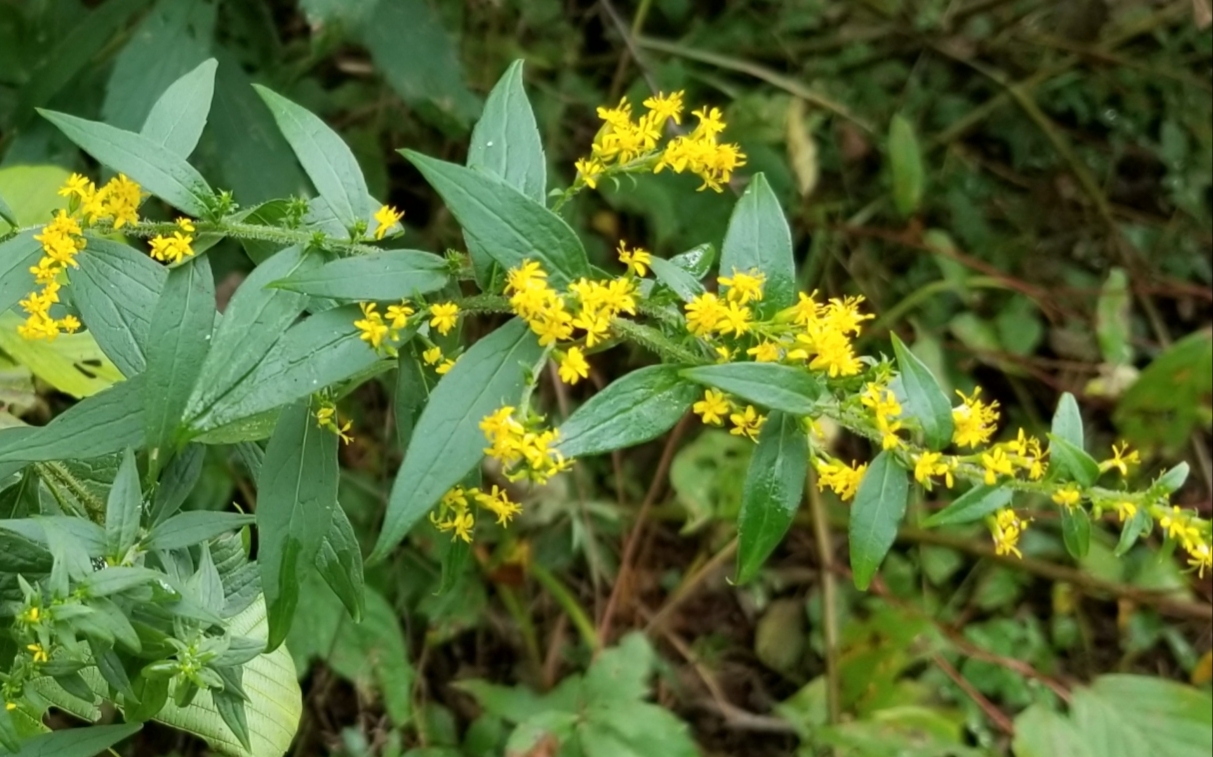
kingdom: Plantae
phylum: Tracheophyta
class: Magnoliopsida
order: Asterales
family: Asteraceae
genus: Solidago
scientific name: Solidago rugosa
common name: Rough-stemmed goldenrod
